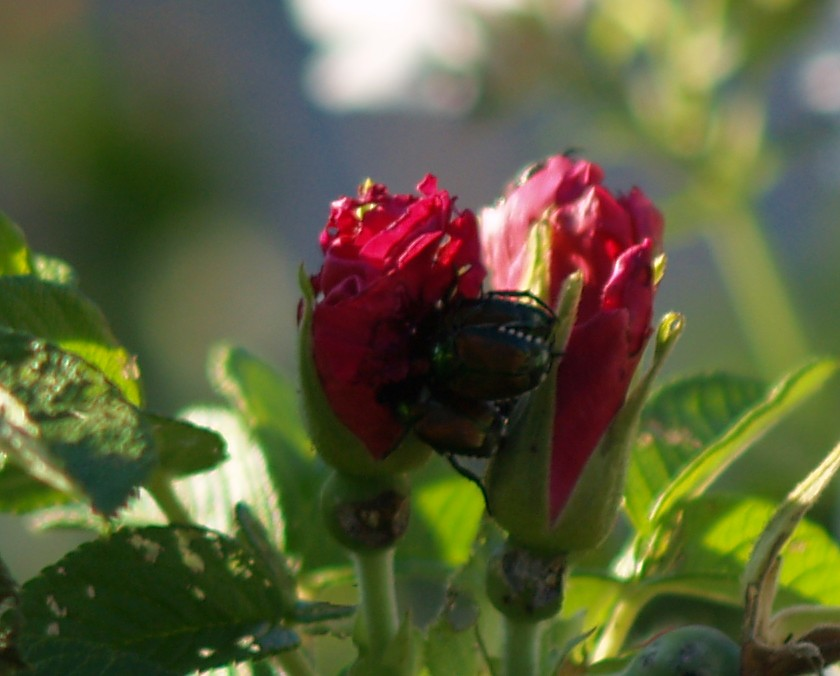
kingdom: Animalia
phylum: Arthropoda
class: Insecta
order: Coleoptera
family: Scarabaeidae
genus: Popillia
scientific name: Popillia japonica
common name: Japanese beetle
